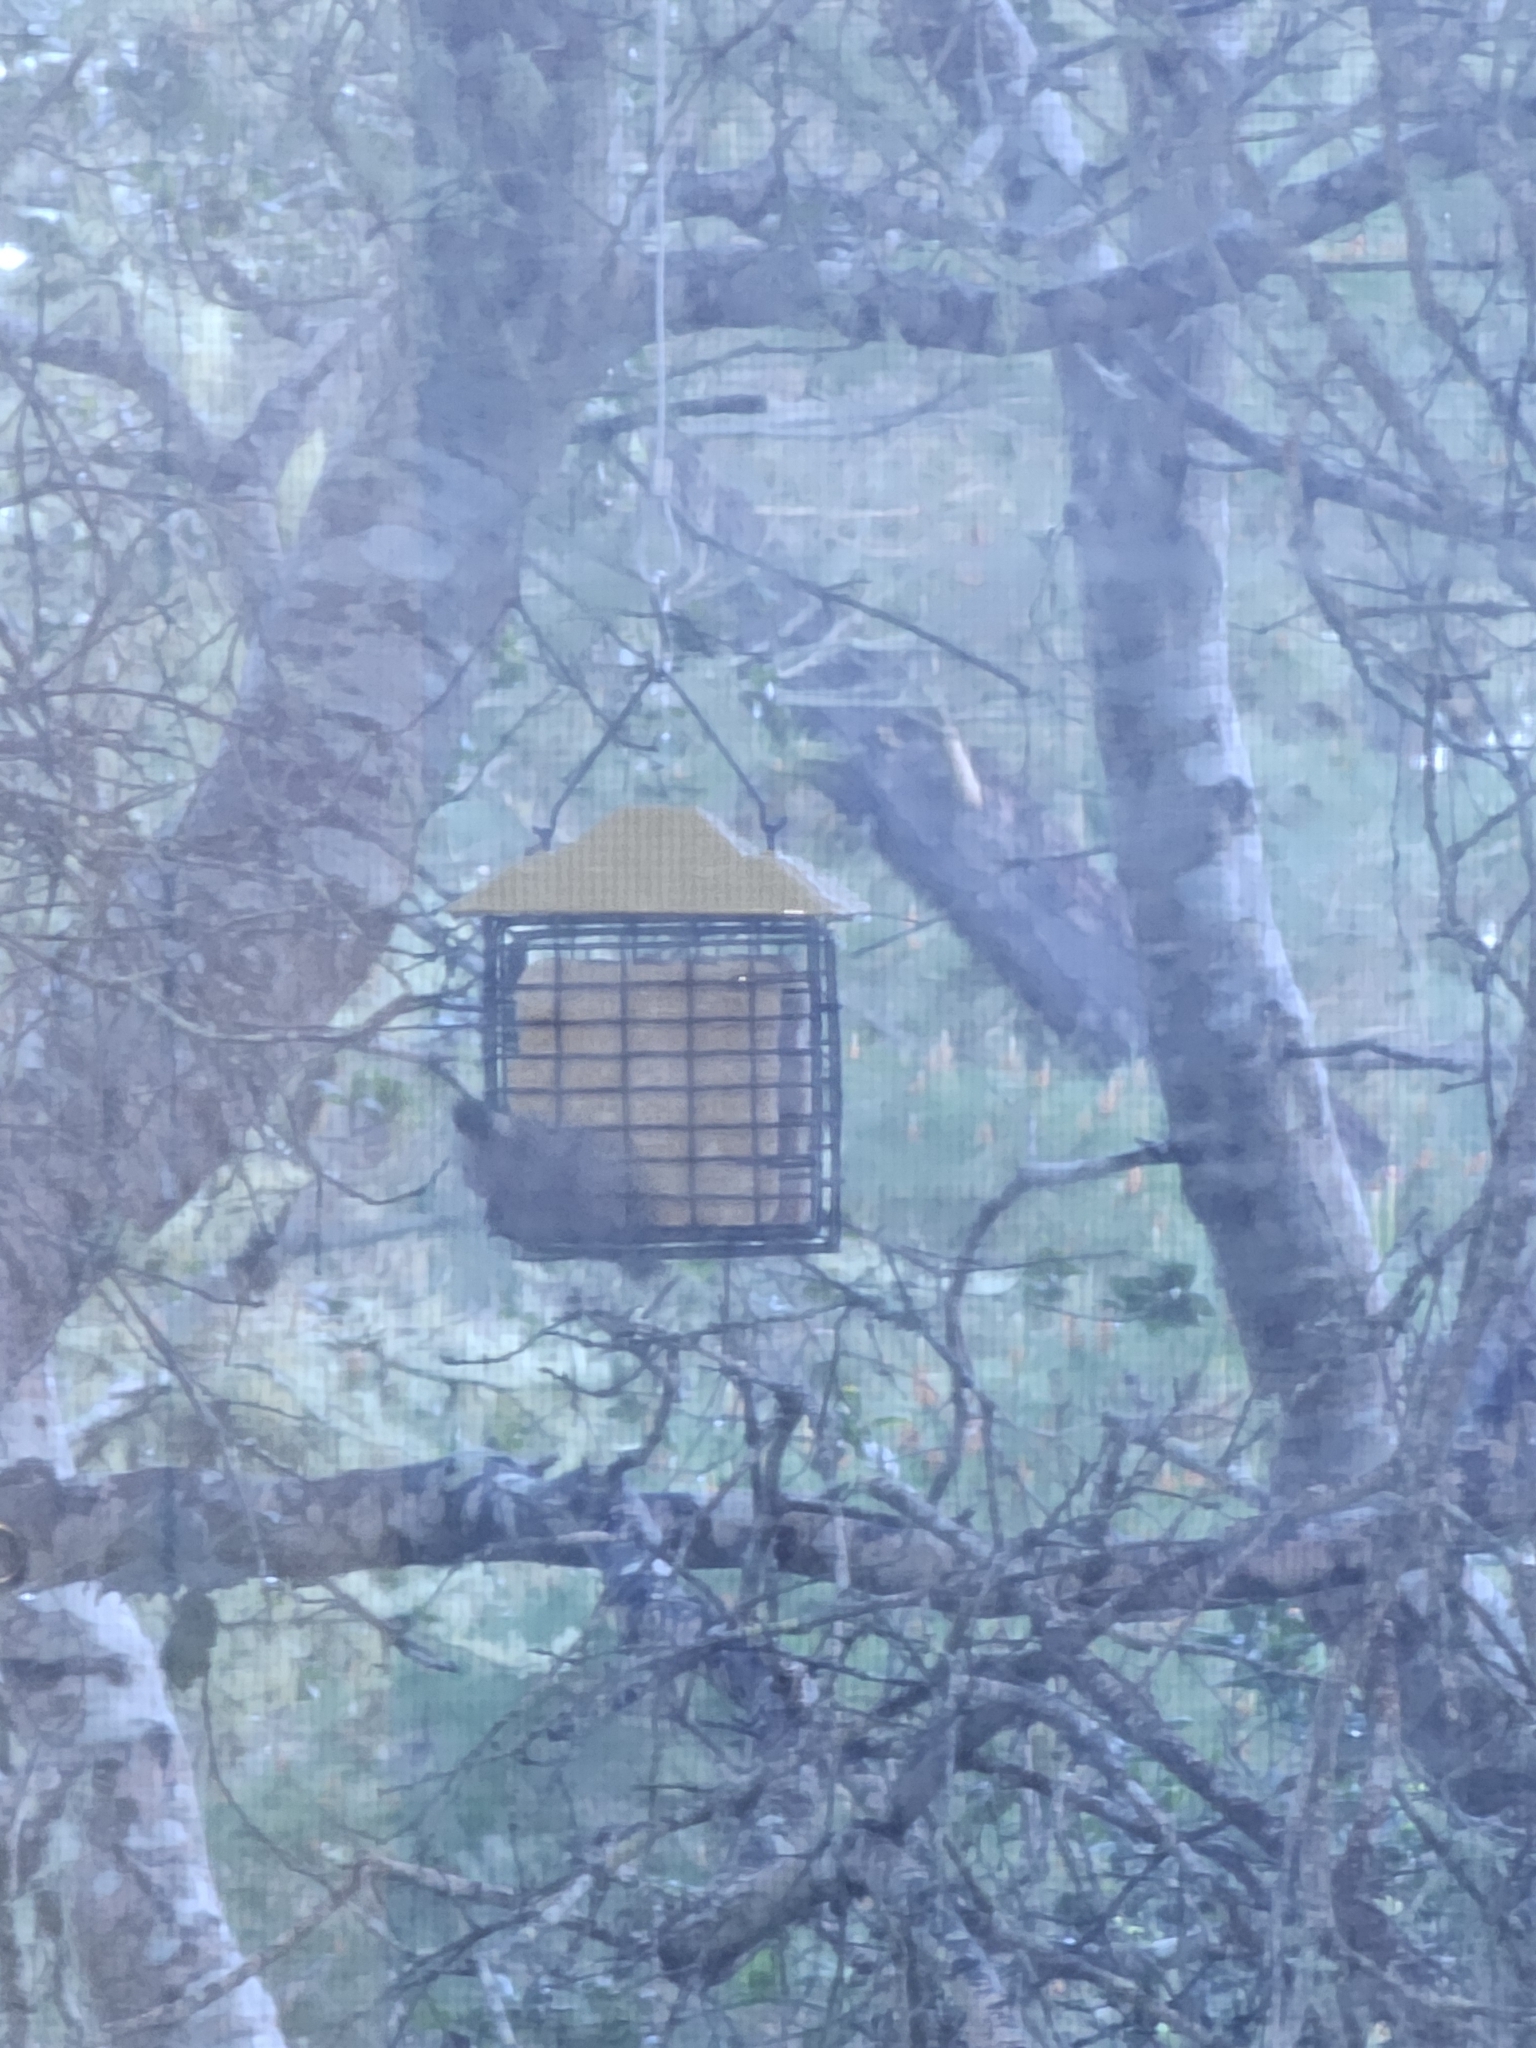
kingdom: Animalia
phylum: Chordata
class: Aves
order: Passeriformes
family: Paridae
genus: Poecile
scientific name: Poecile rufescens
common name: Chestnut-backed chickadee
